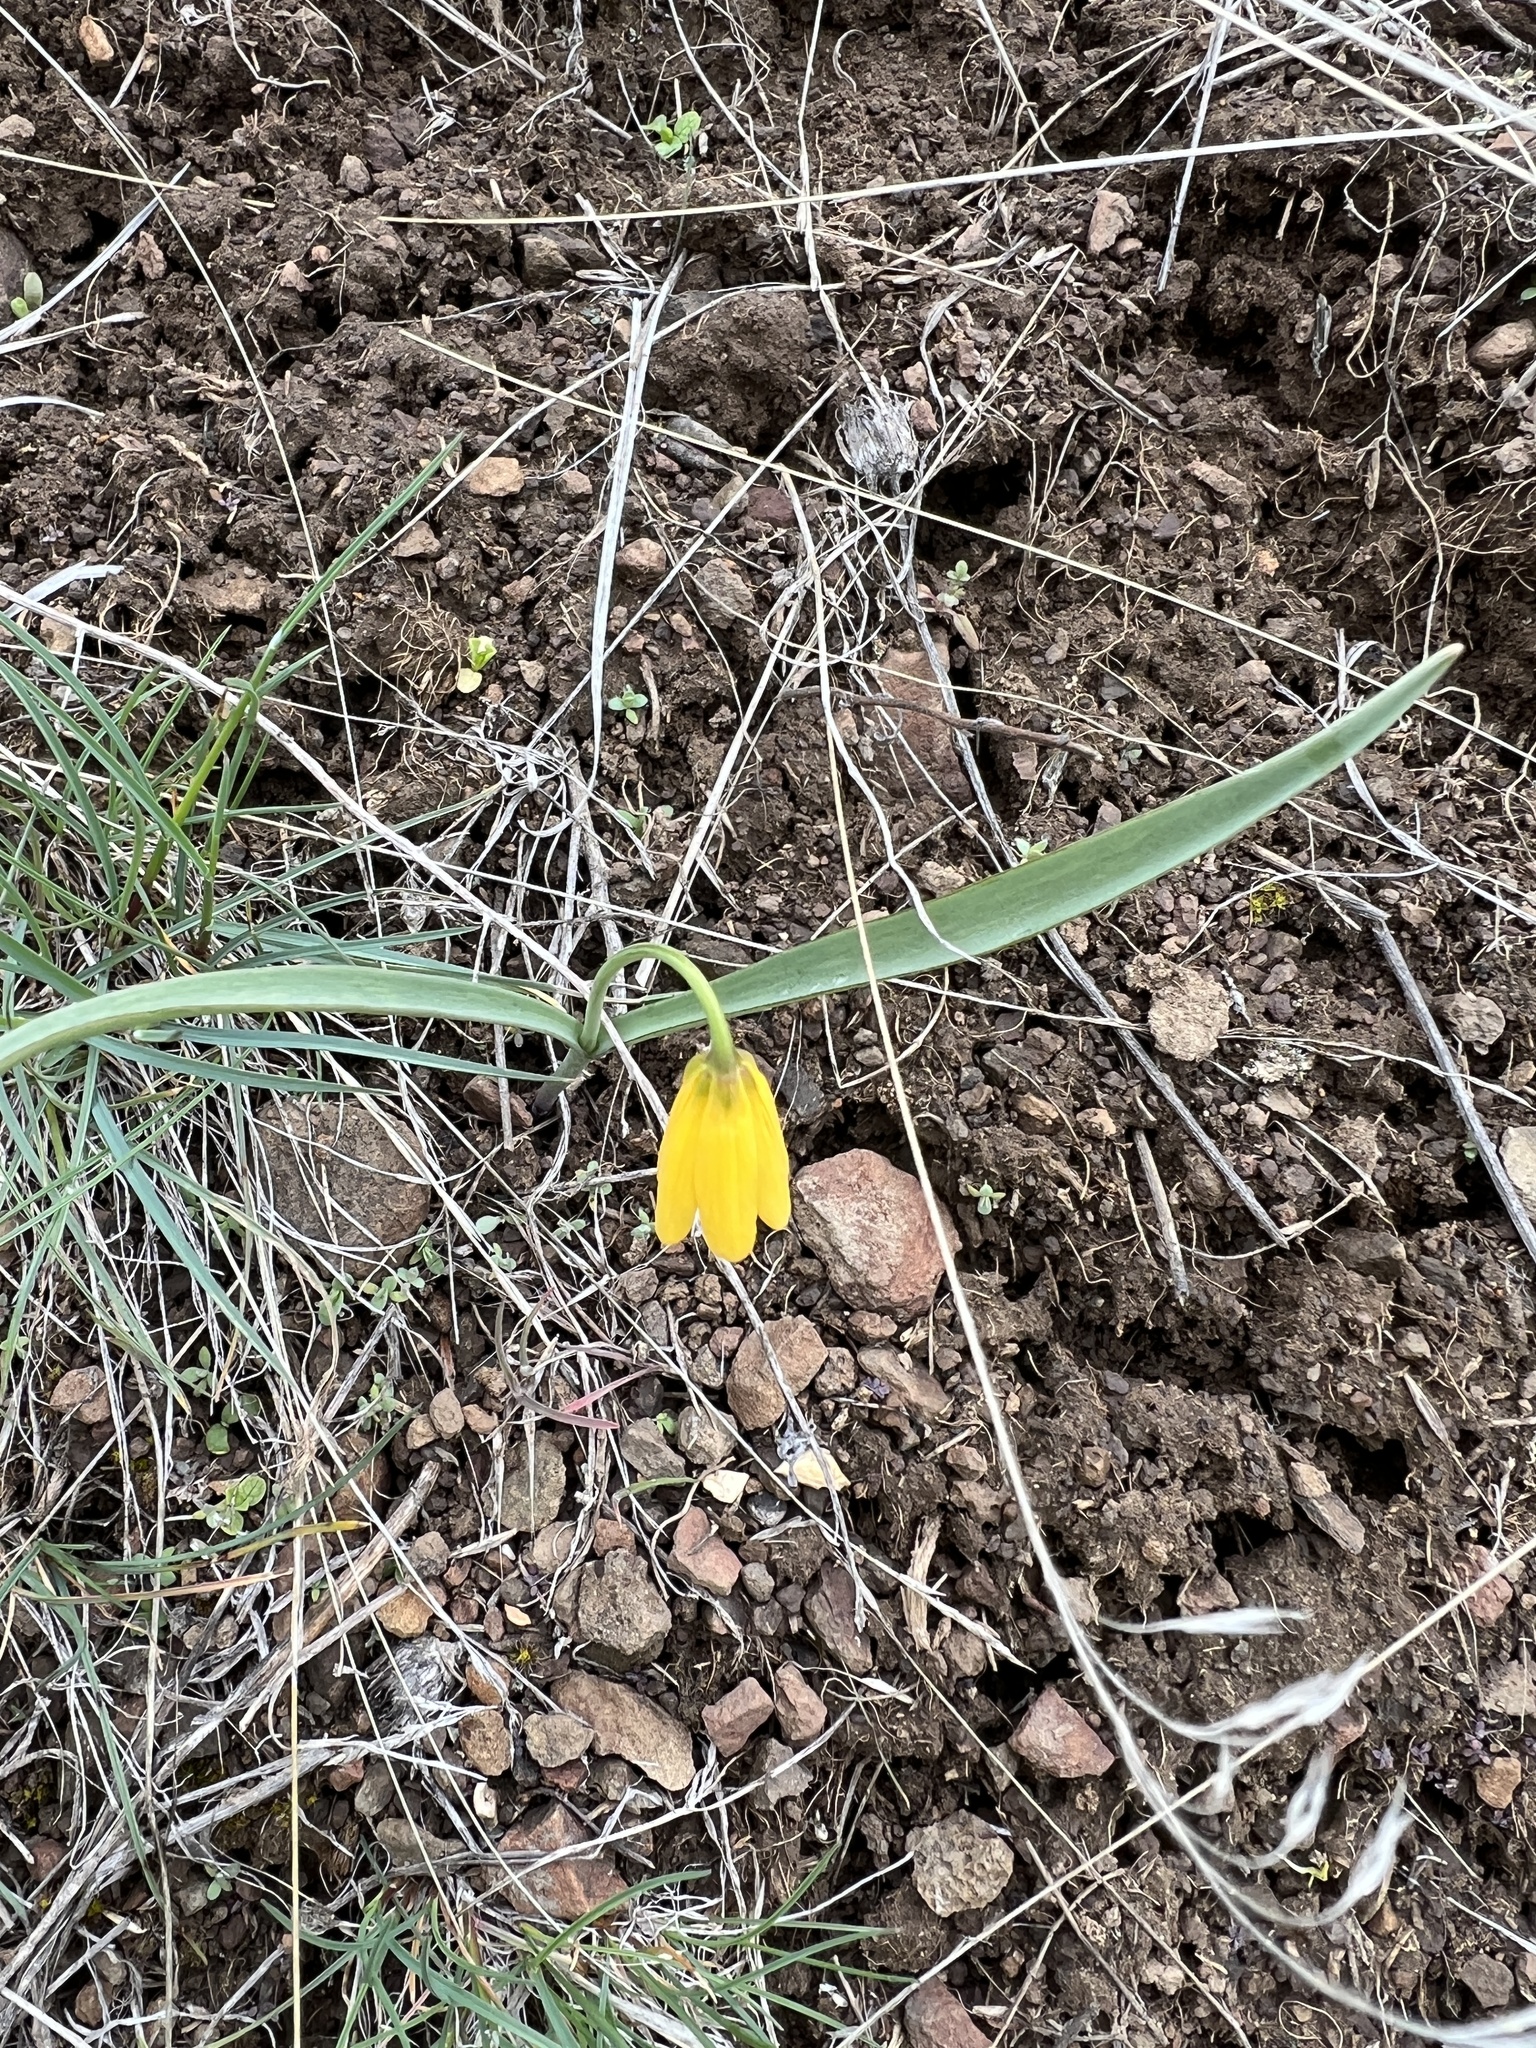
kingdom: Plantae
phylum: Tracheophyta
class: Liliopsida
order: Liliales
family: Liliaceae
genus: Fritillaria
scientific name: Fritillaria pudica
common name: Yellow fritillary
